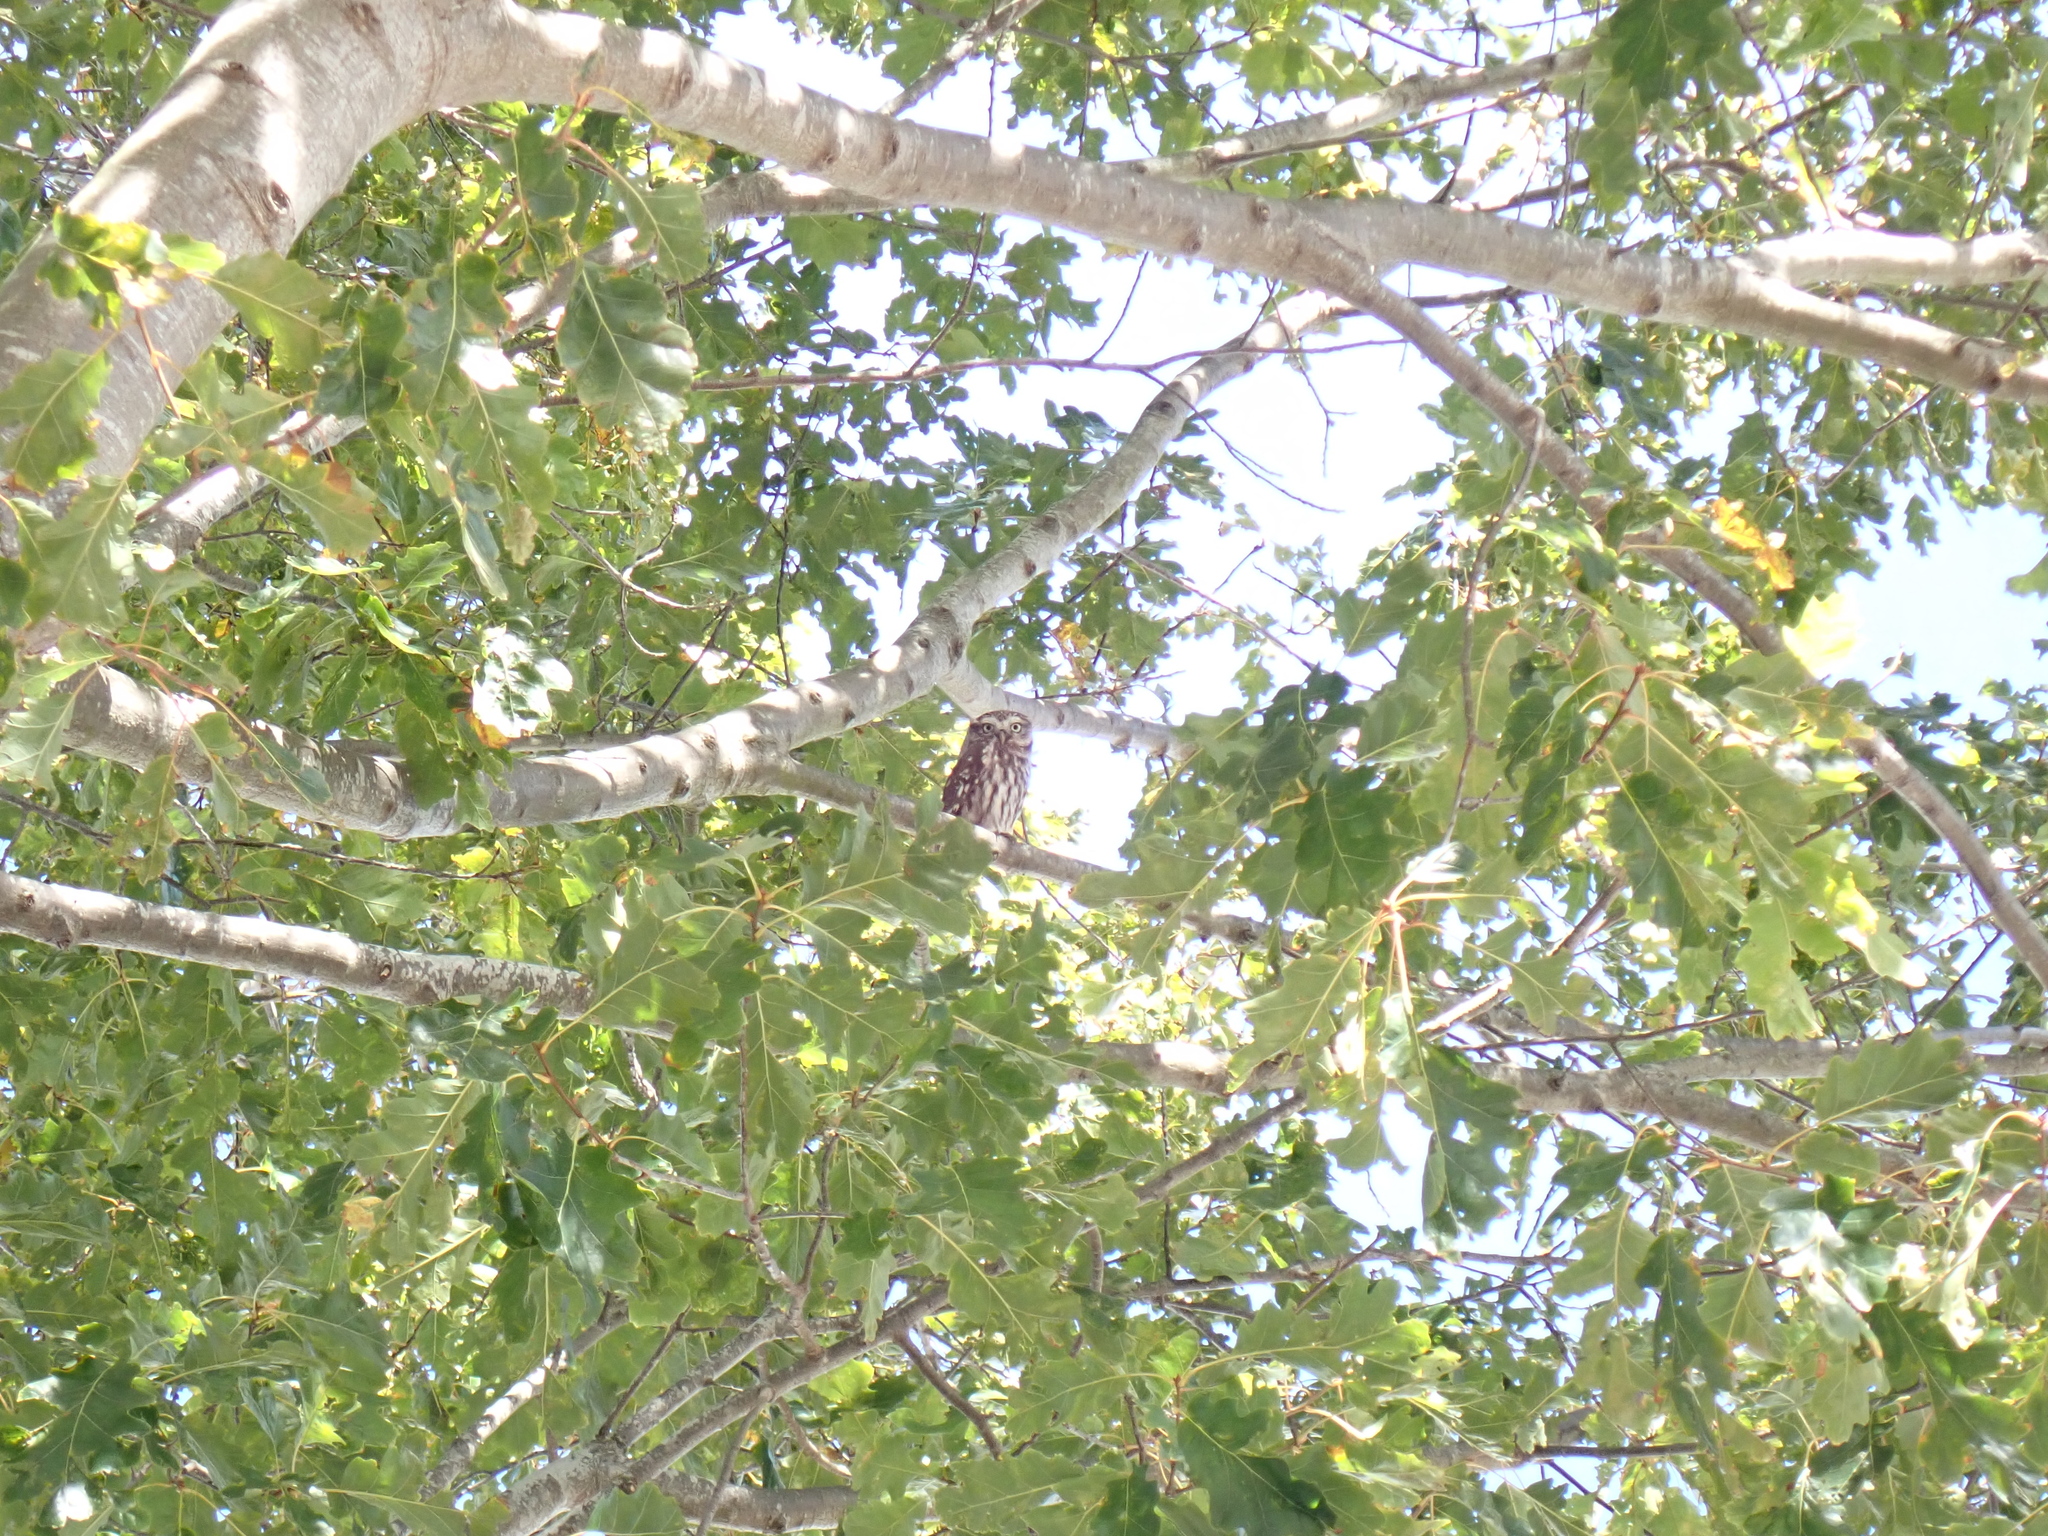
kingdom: Animalia
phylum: Chordata
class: Aves
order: Strigiformes
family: Strigidae
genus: Athene
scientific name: Athene noctua
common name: Little owl
